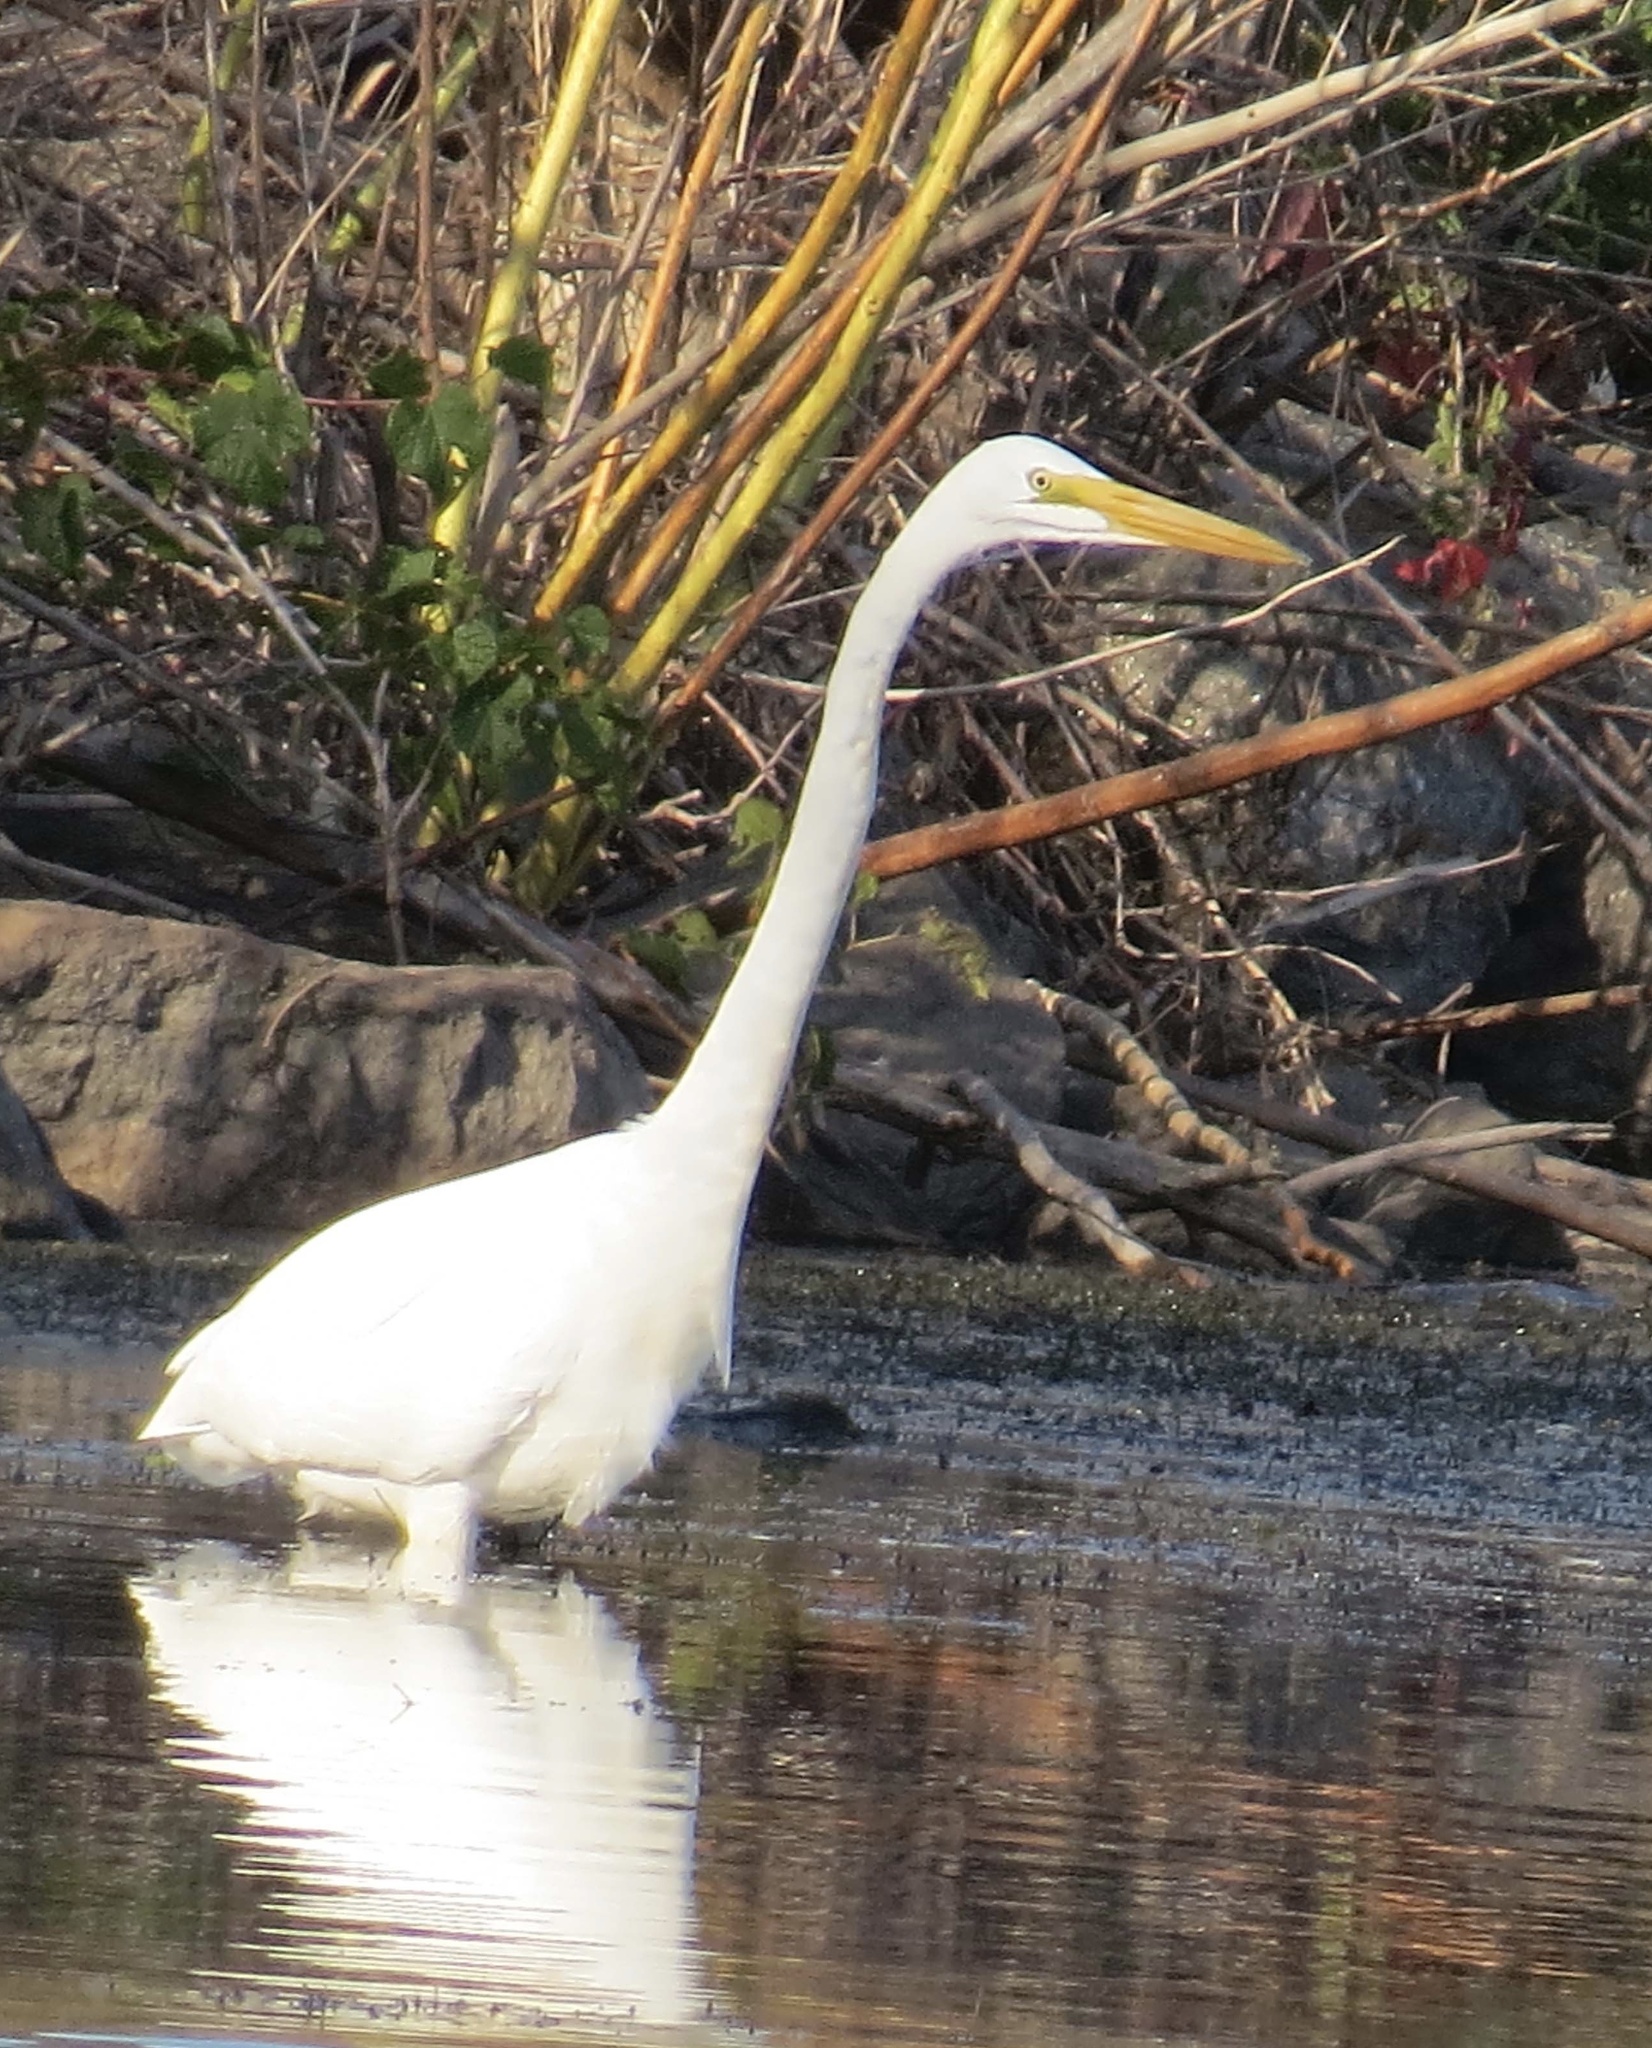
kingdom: Animalia
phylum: Chordata
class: Aves
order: Pelecaniformes
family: Ardeidae
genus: Ardea
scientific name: Ardea alba
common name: Great egret
